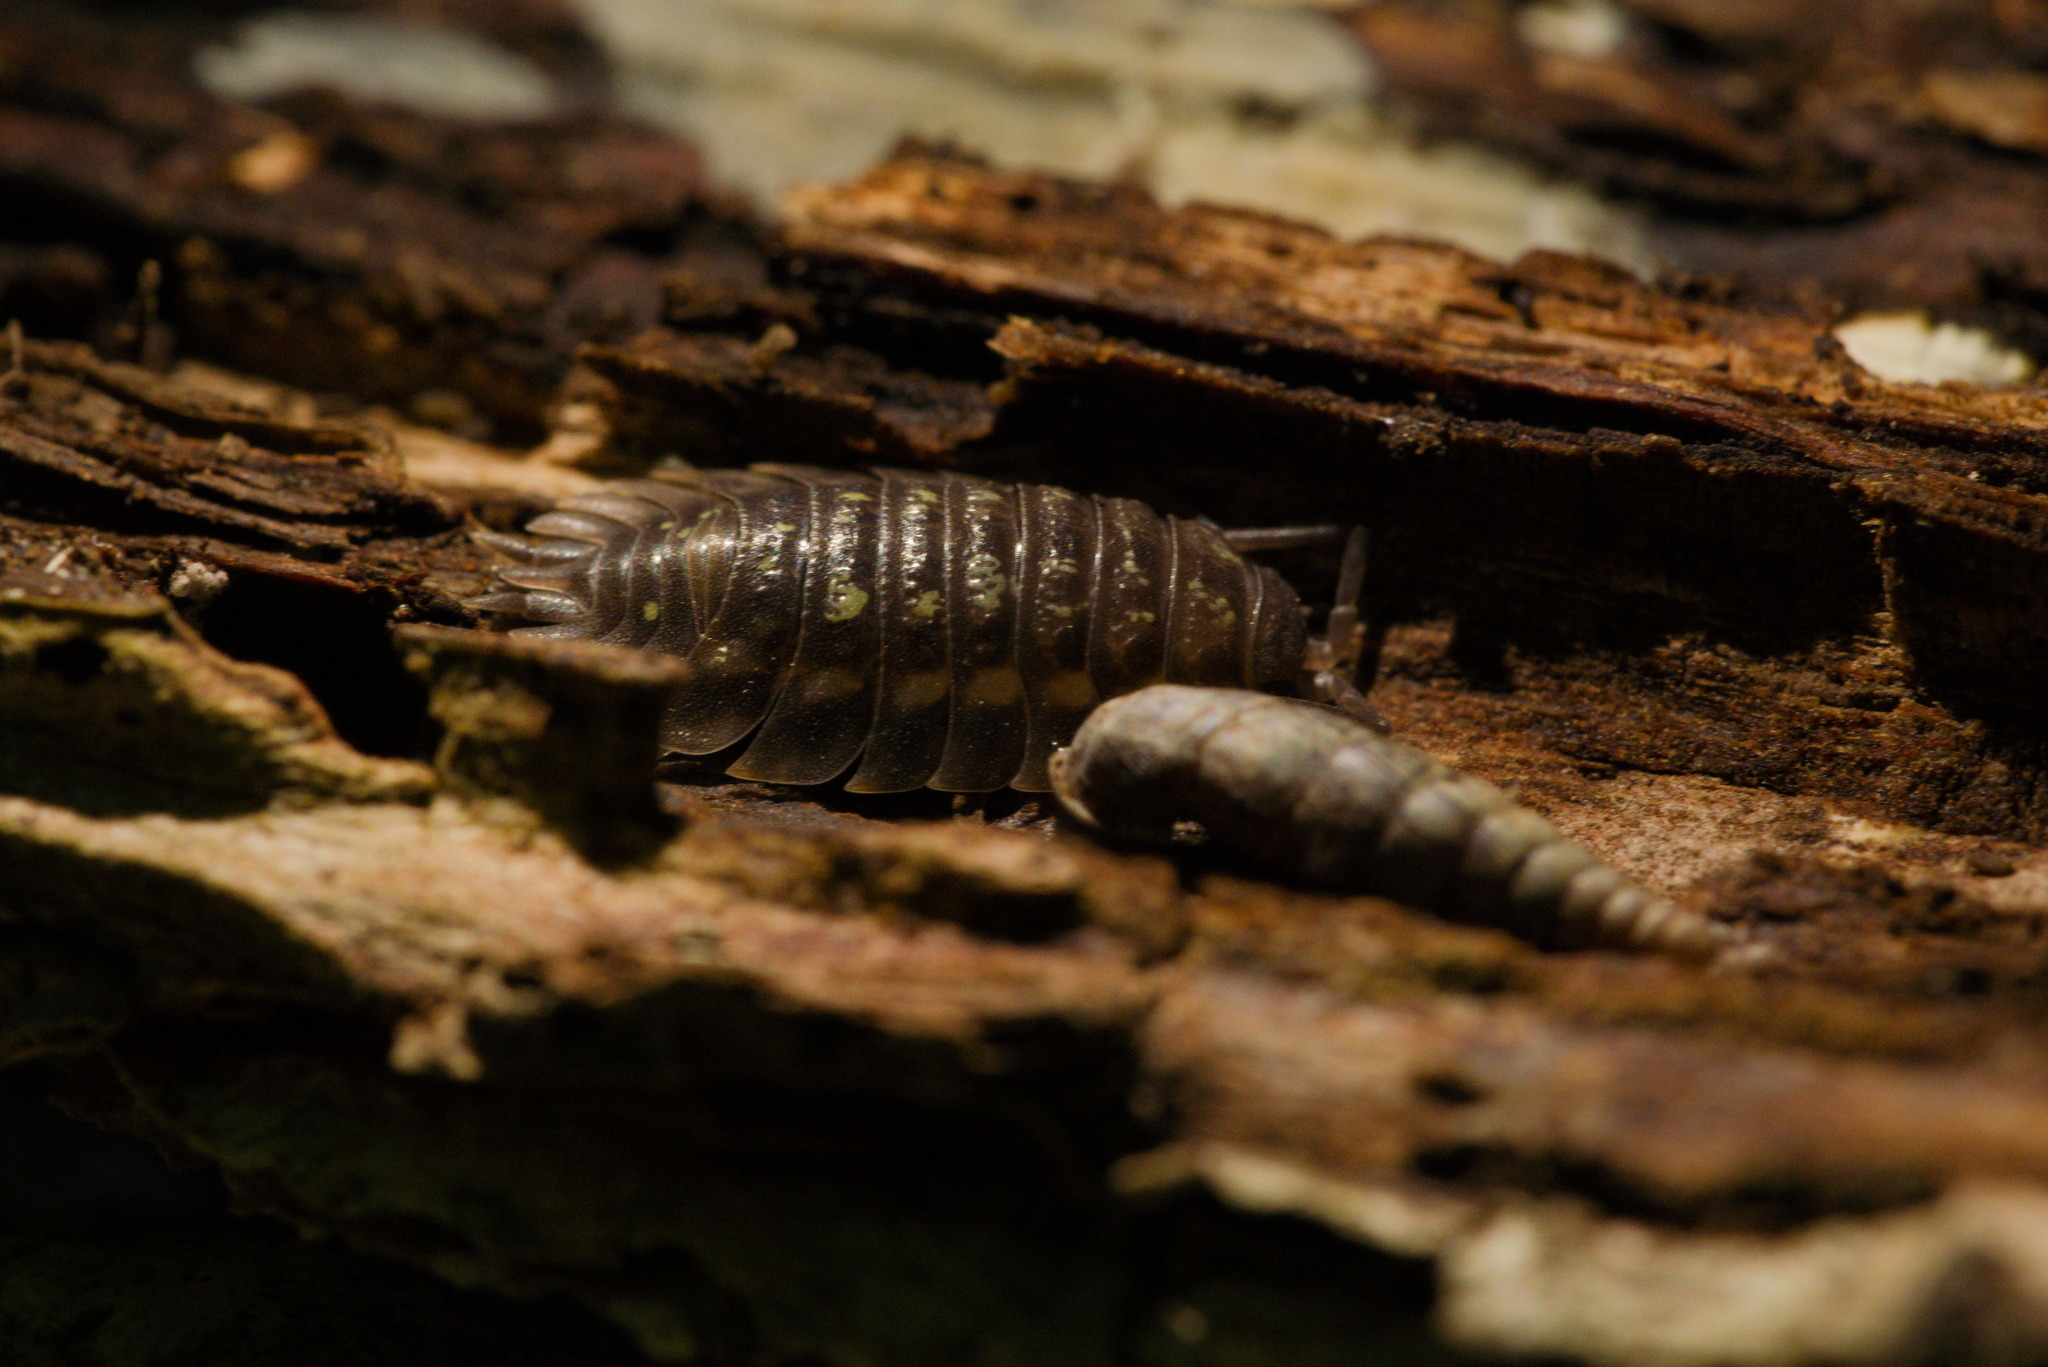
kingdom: Animalia
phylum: Arthropoda
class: Malacostraca
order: Isopoda
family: Oniscidae
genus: Oniscus
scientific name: Oniscus asellus
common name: Common shiny woodlouse
